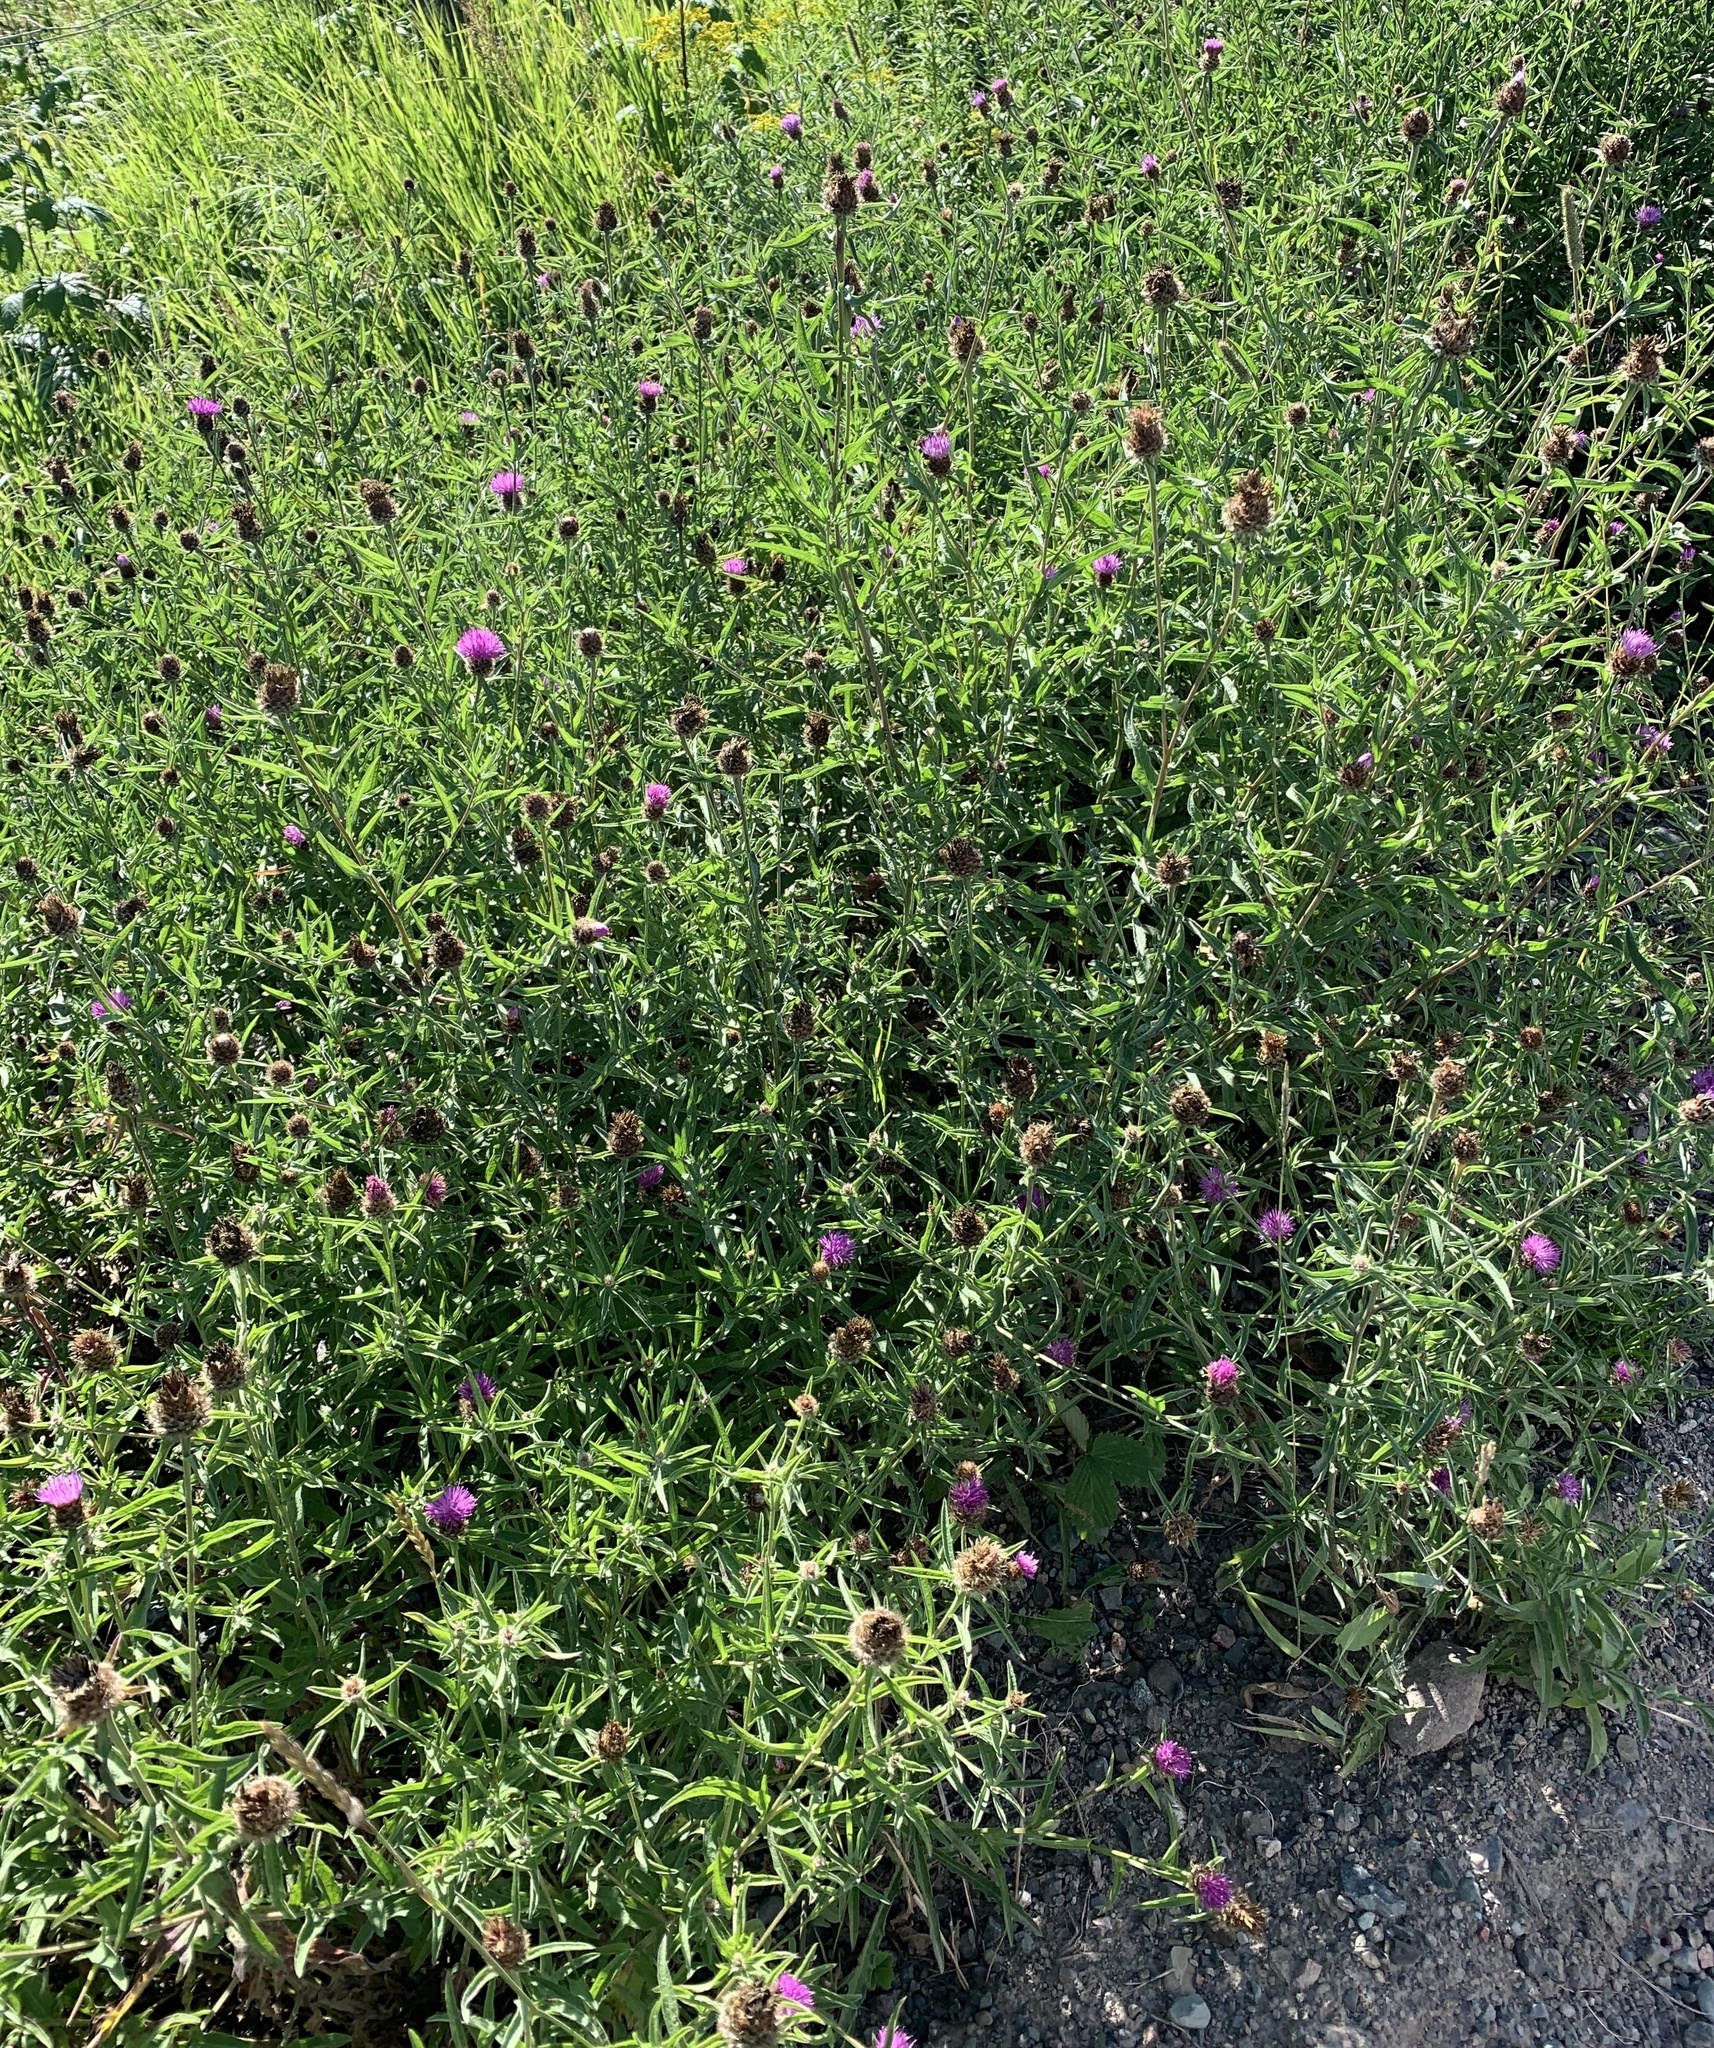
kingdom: Plantae
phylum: Tracheophyta
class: Magnoliopsida
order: Asterales
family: Asteraceae
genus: Centaurea
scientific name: Centaurea nigra
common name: Lesser knapweed
